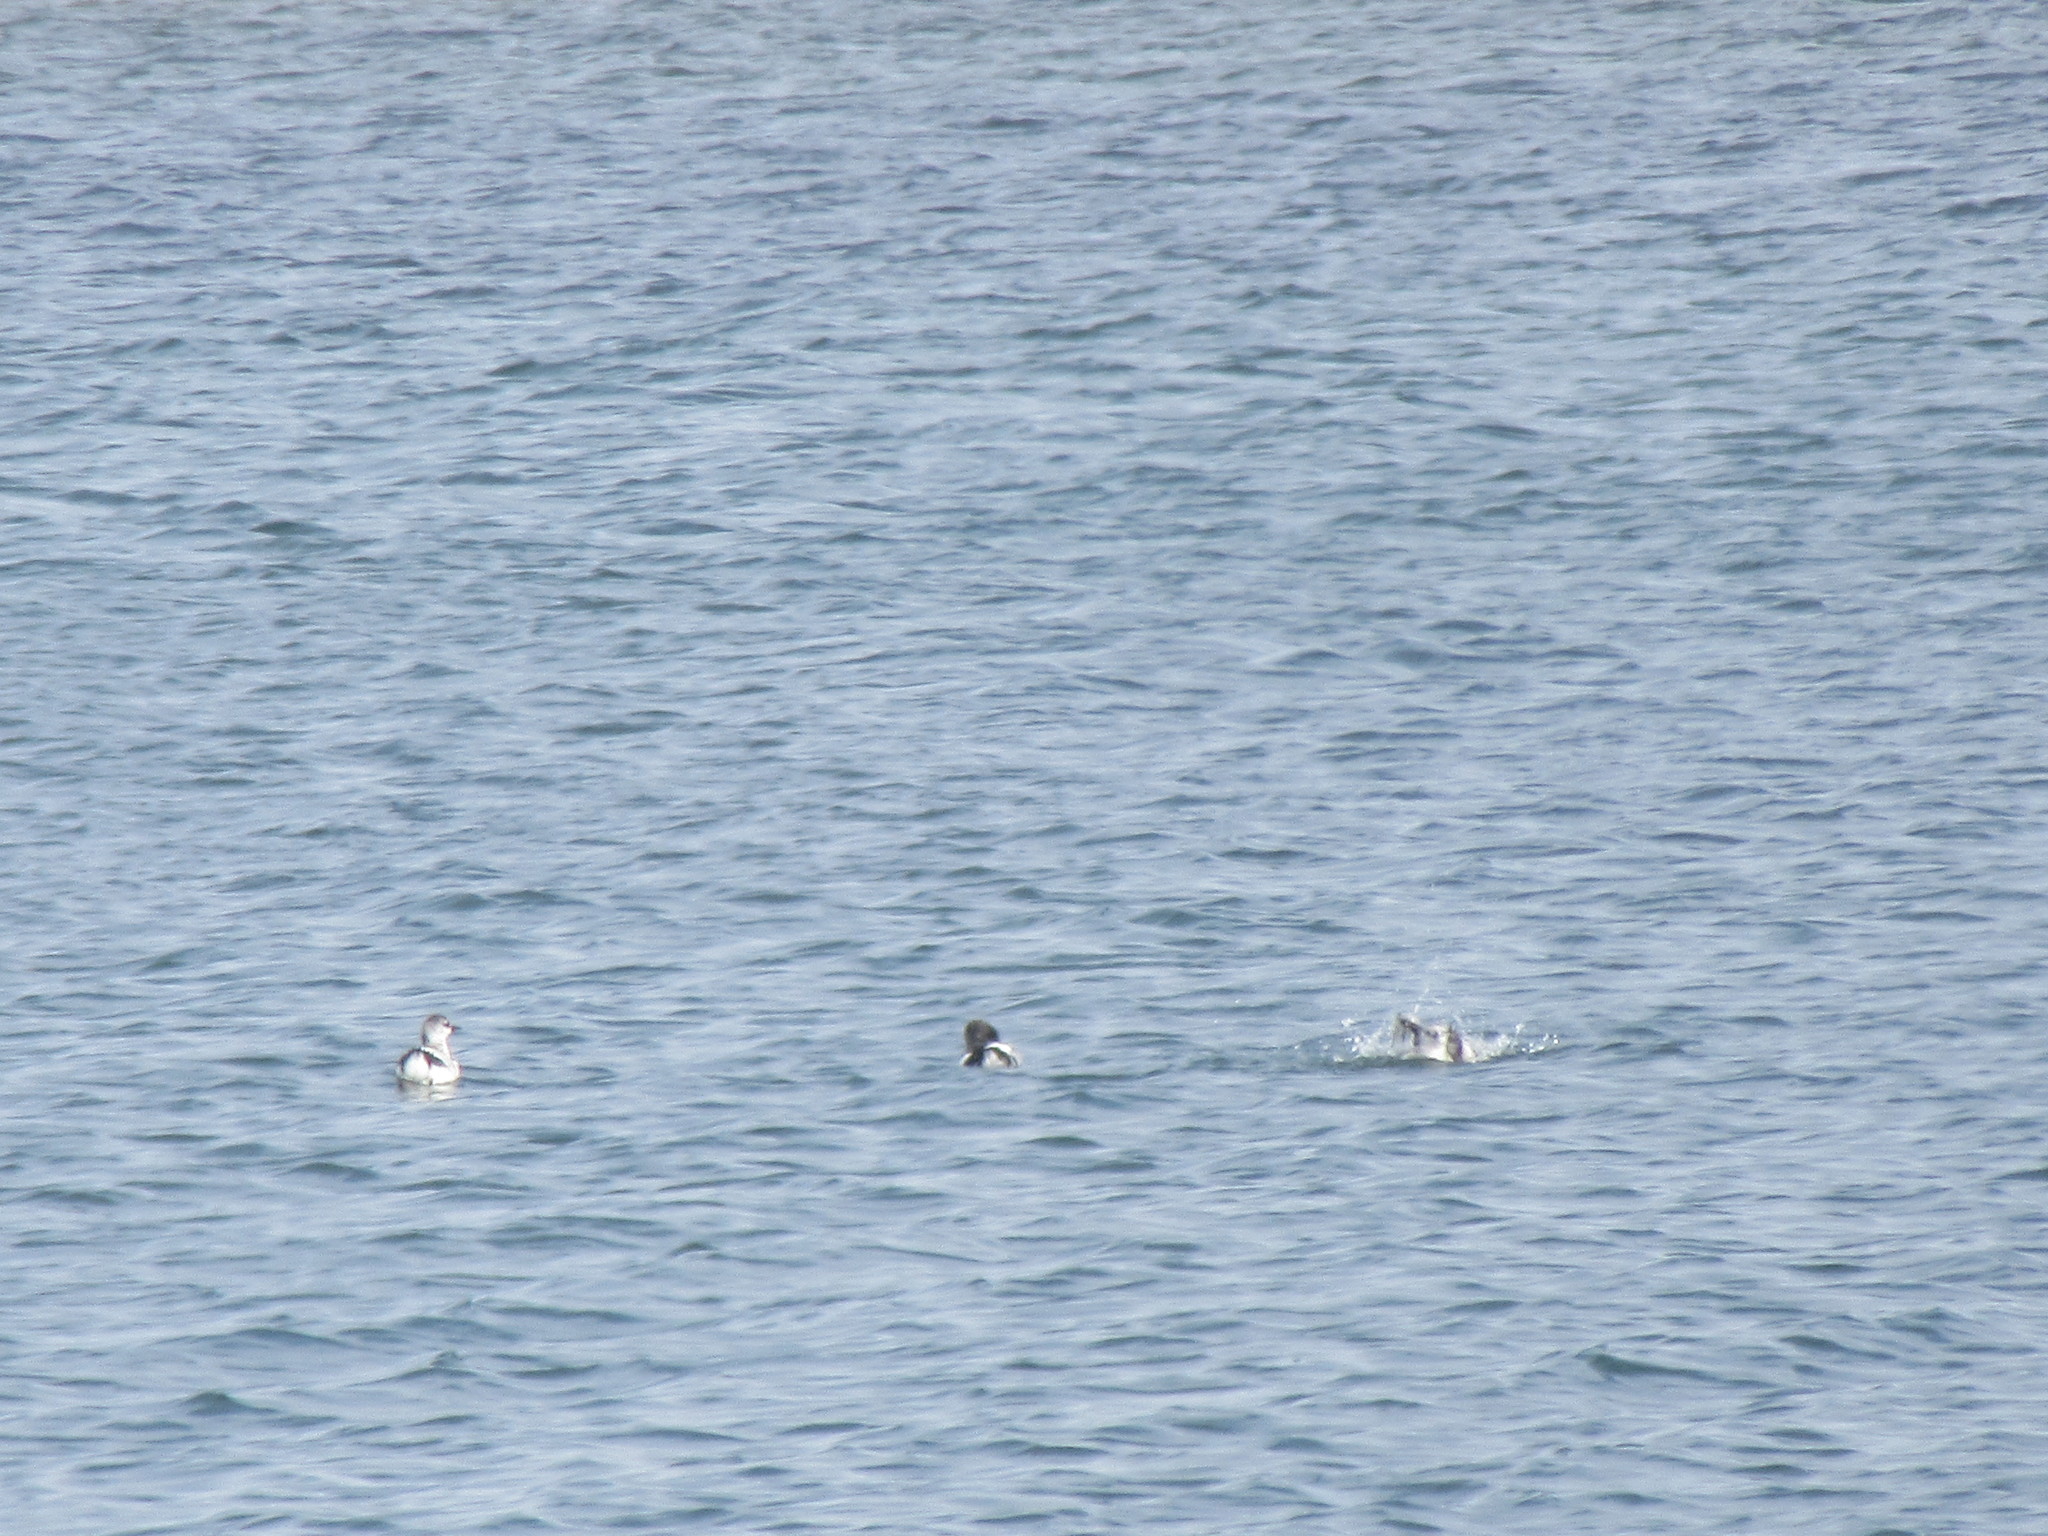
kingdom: Animalia
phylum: Chordata
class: Aves
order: Charadriiformes
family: Alcidae
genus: Cepphus
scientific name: Cepphus grylle
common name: Black guillemot
